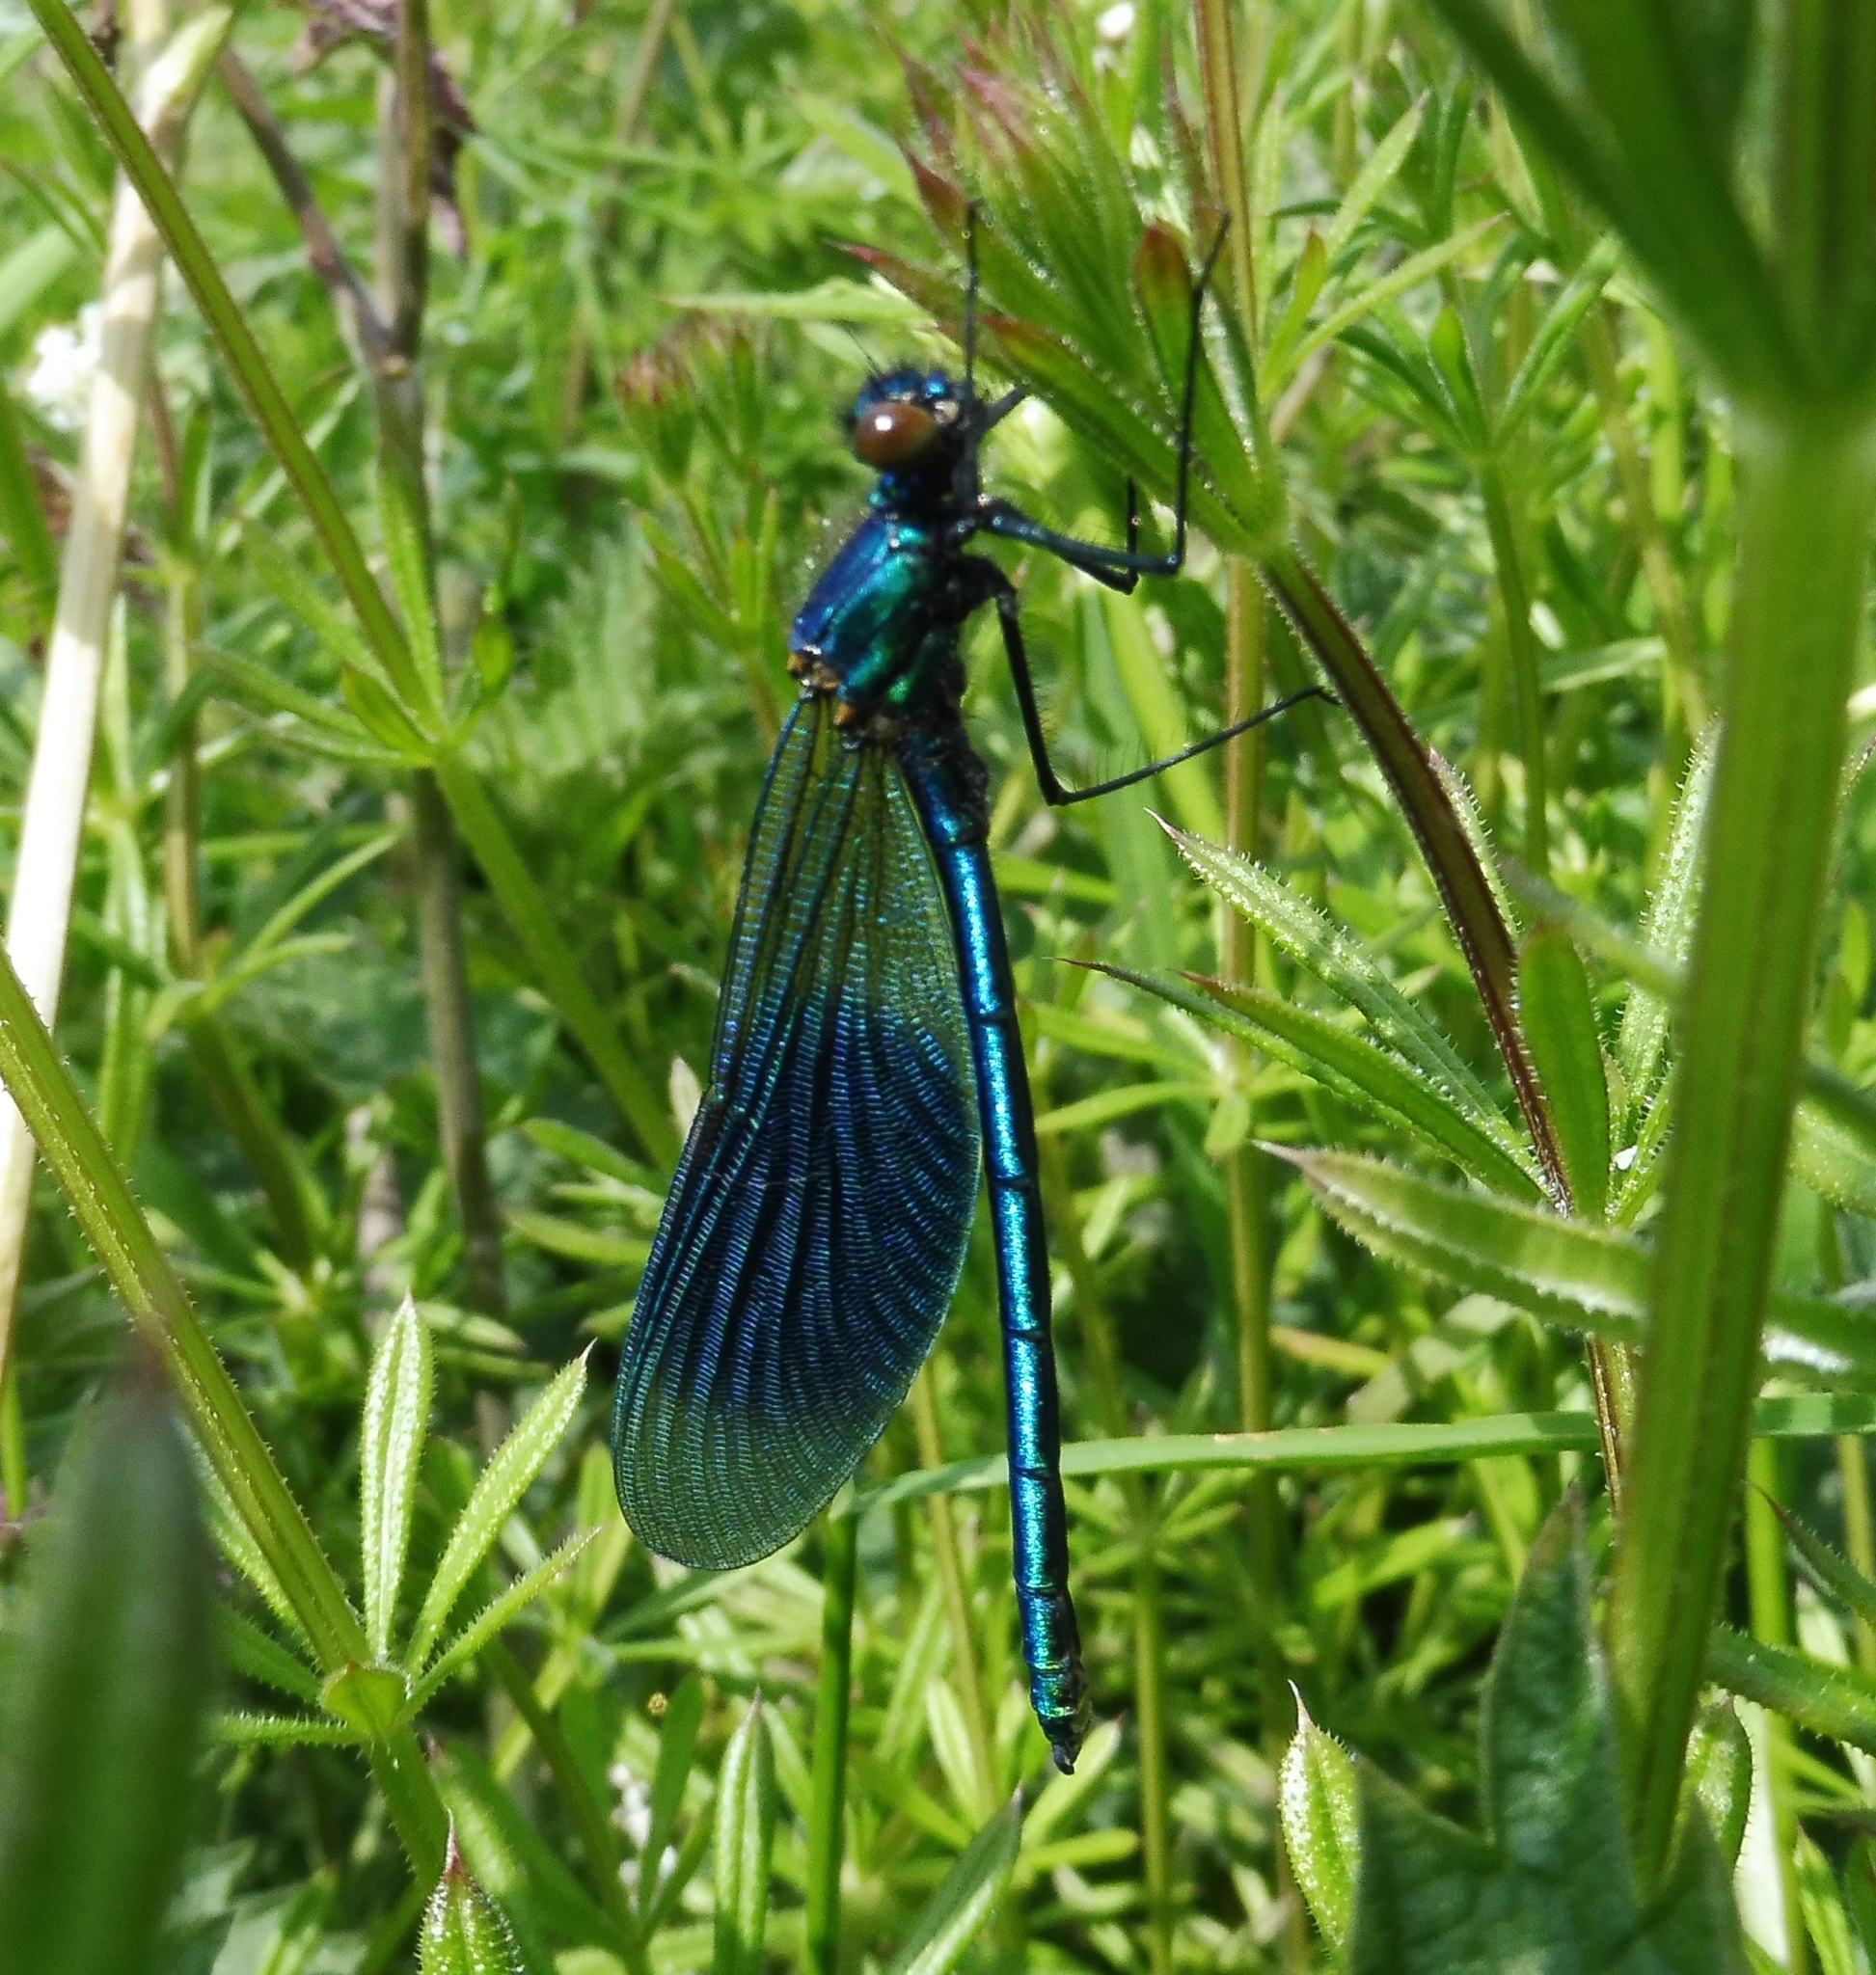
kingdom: Animalia
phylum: Arthropoda
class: Insecta
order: Odonata
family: Calopterygidae
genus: Calopteryx
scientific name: Calopteryx splendens
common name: Banded demoiselle
